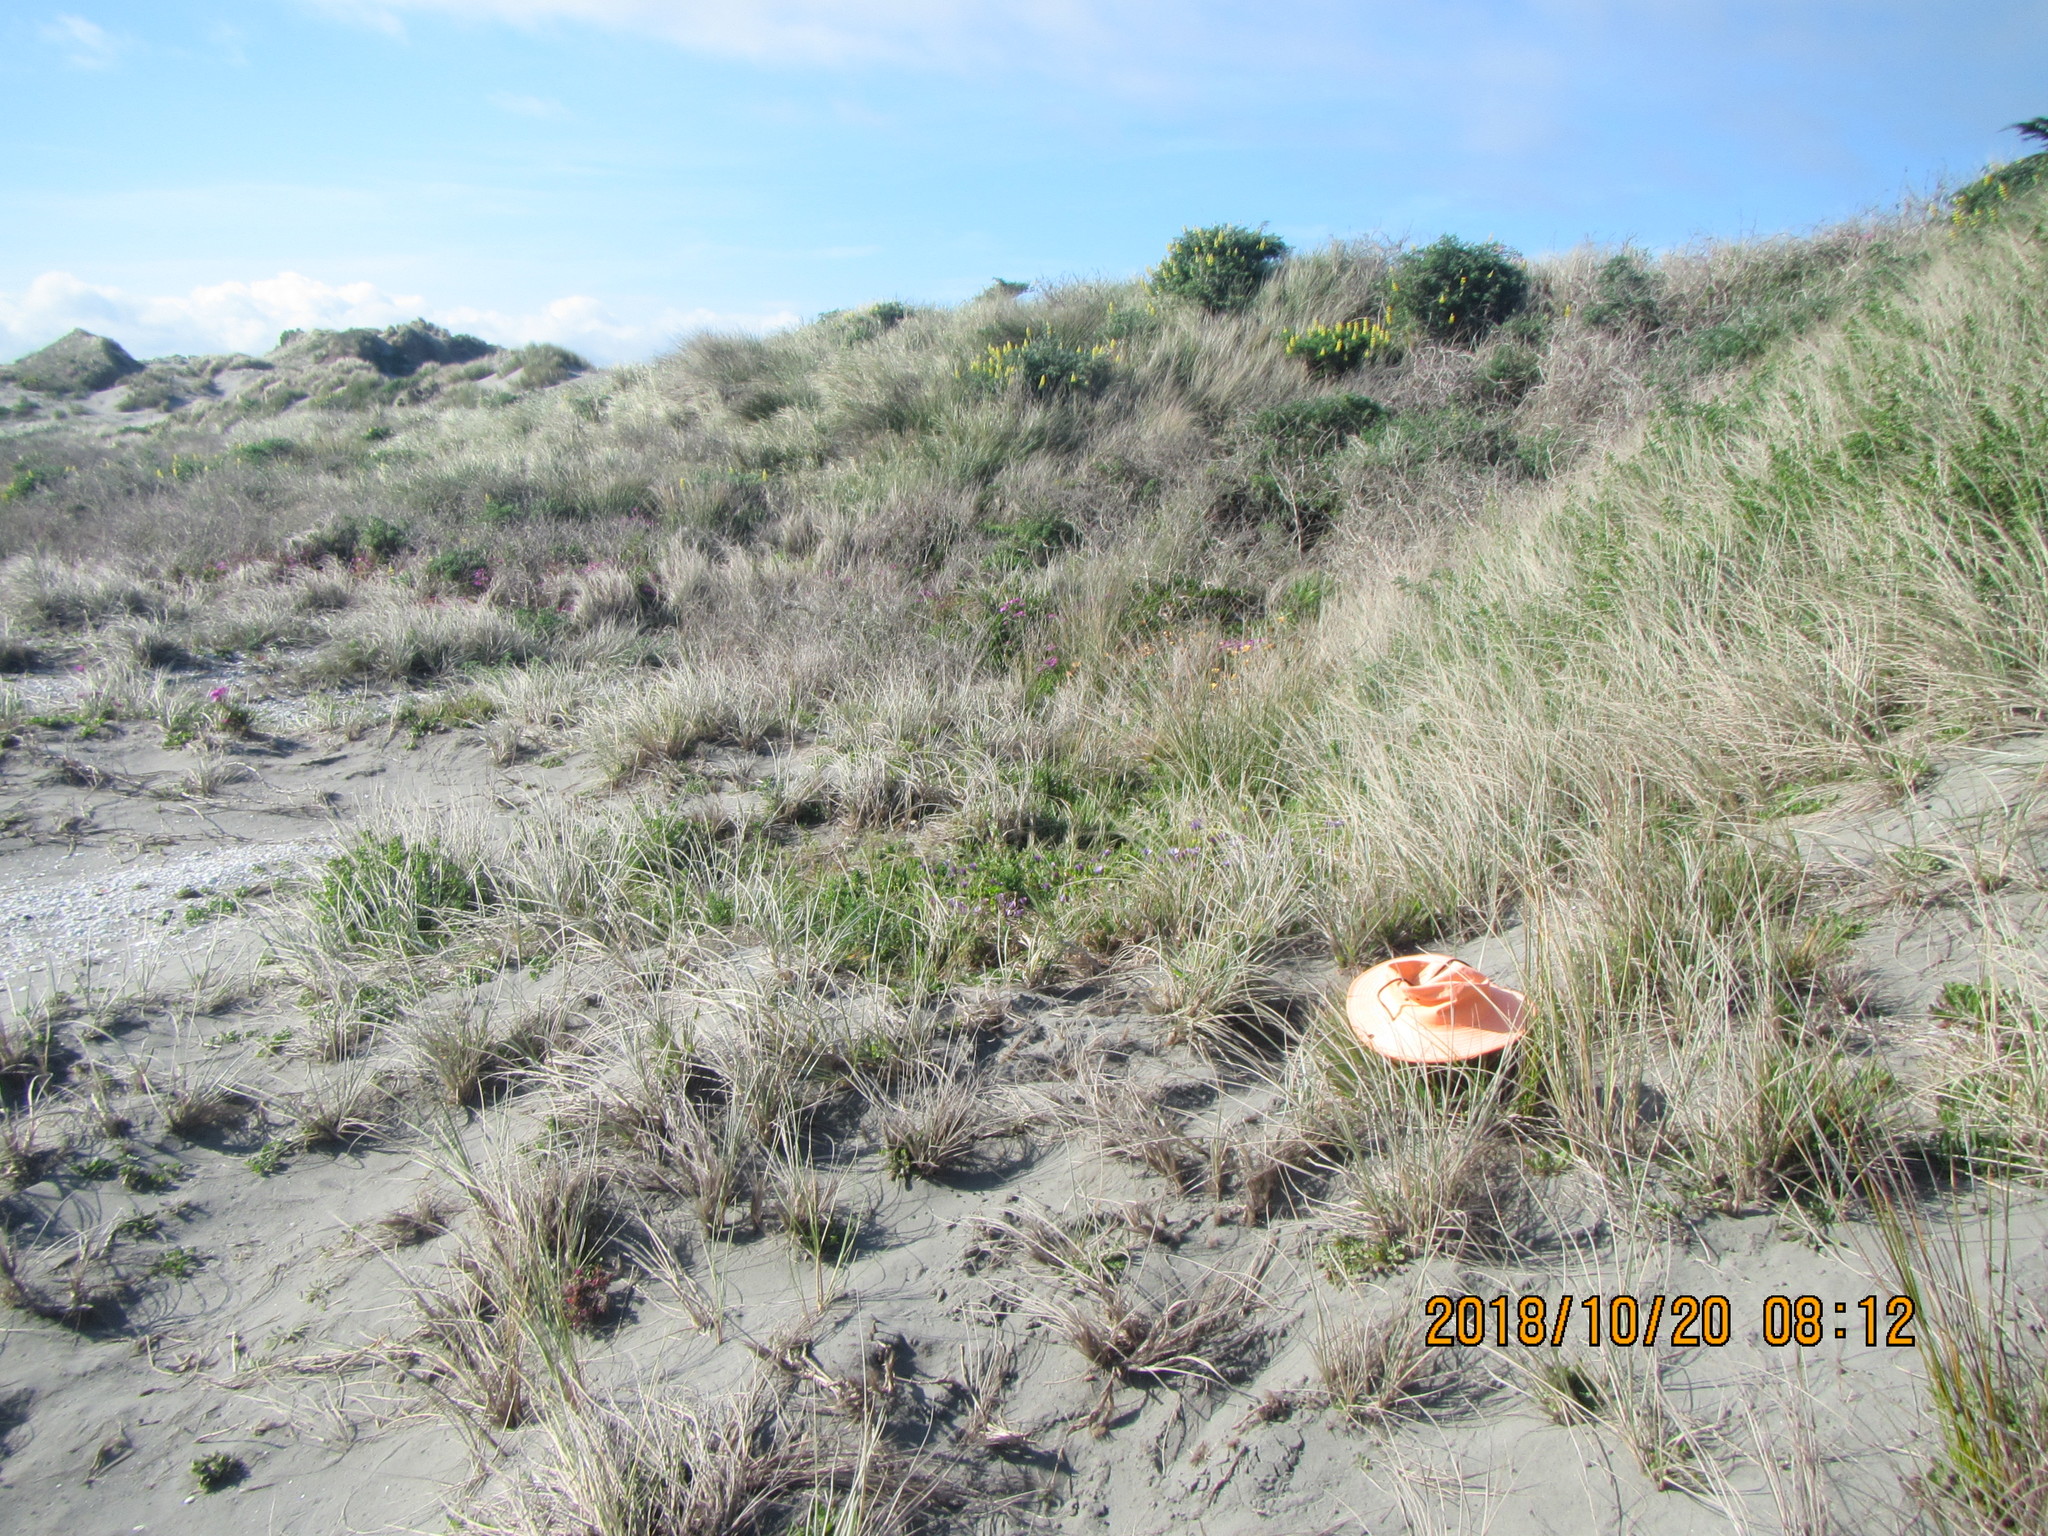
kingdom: Animalia
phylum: Arthropoda
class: Insecta
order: Hemiptera
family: Cicadidae
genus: Rhodopsalta
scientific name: Rhodopsalta leptomera
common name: Sand dune redtail cicada
